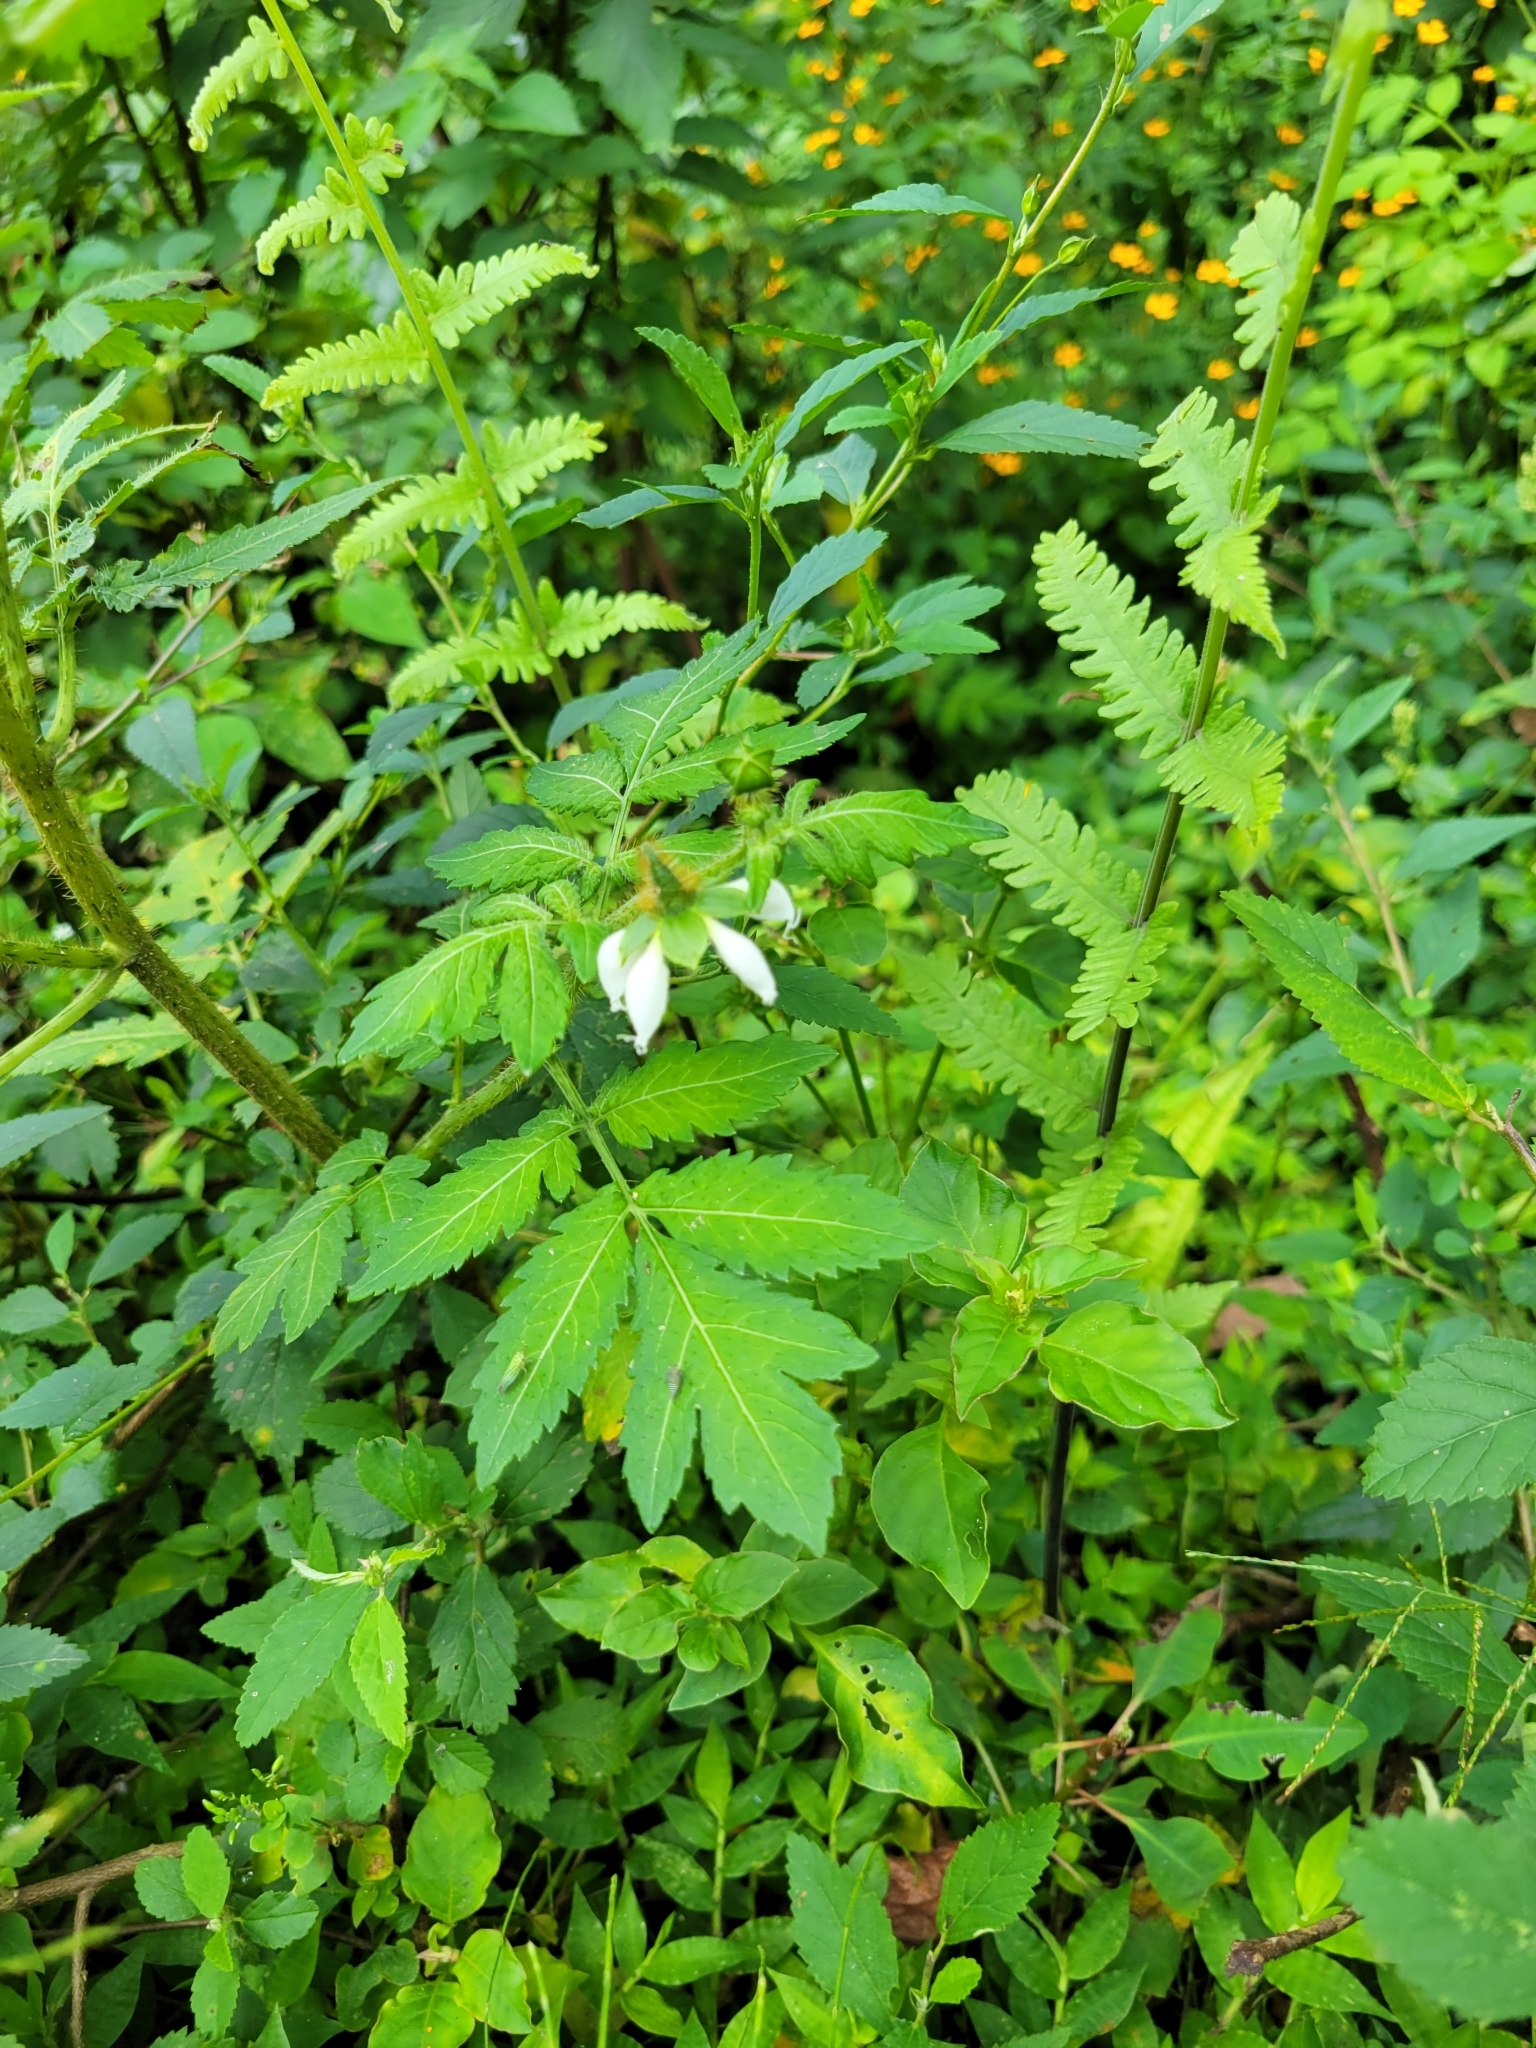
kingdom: Plantae
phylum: Tracheophyta
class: Magnoliopsida
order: Cornales
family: Loasaceae
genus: Nasa
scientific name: Nasa triphylla
